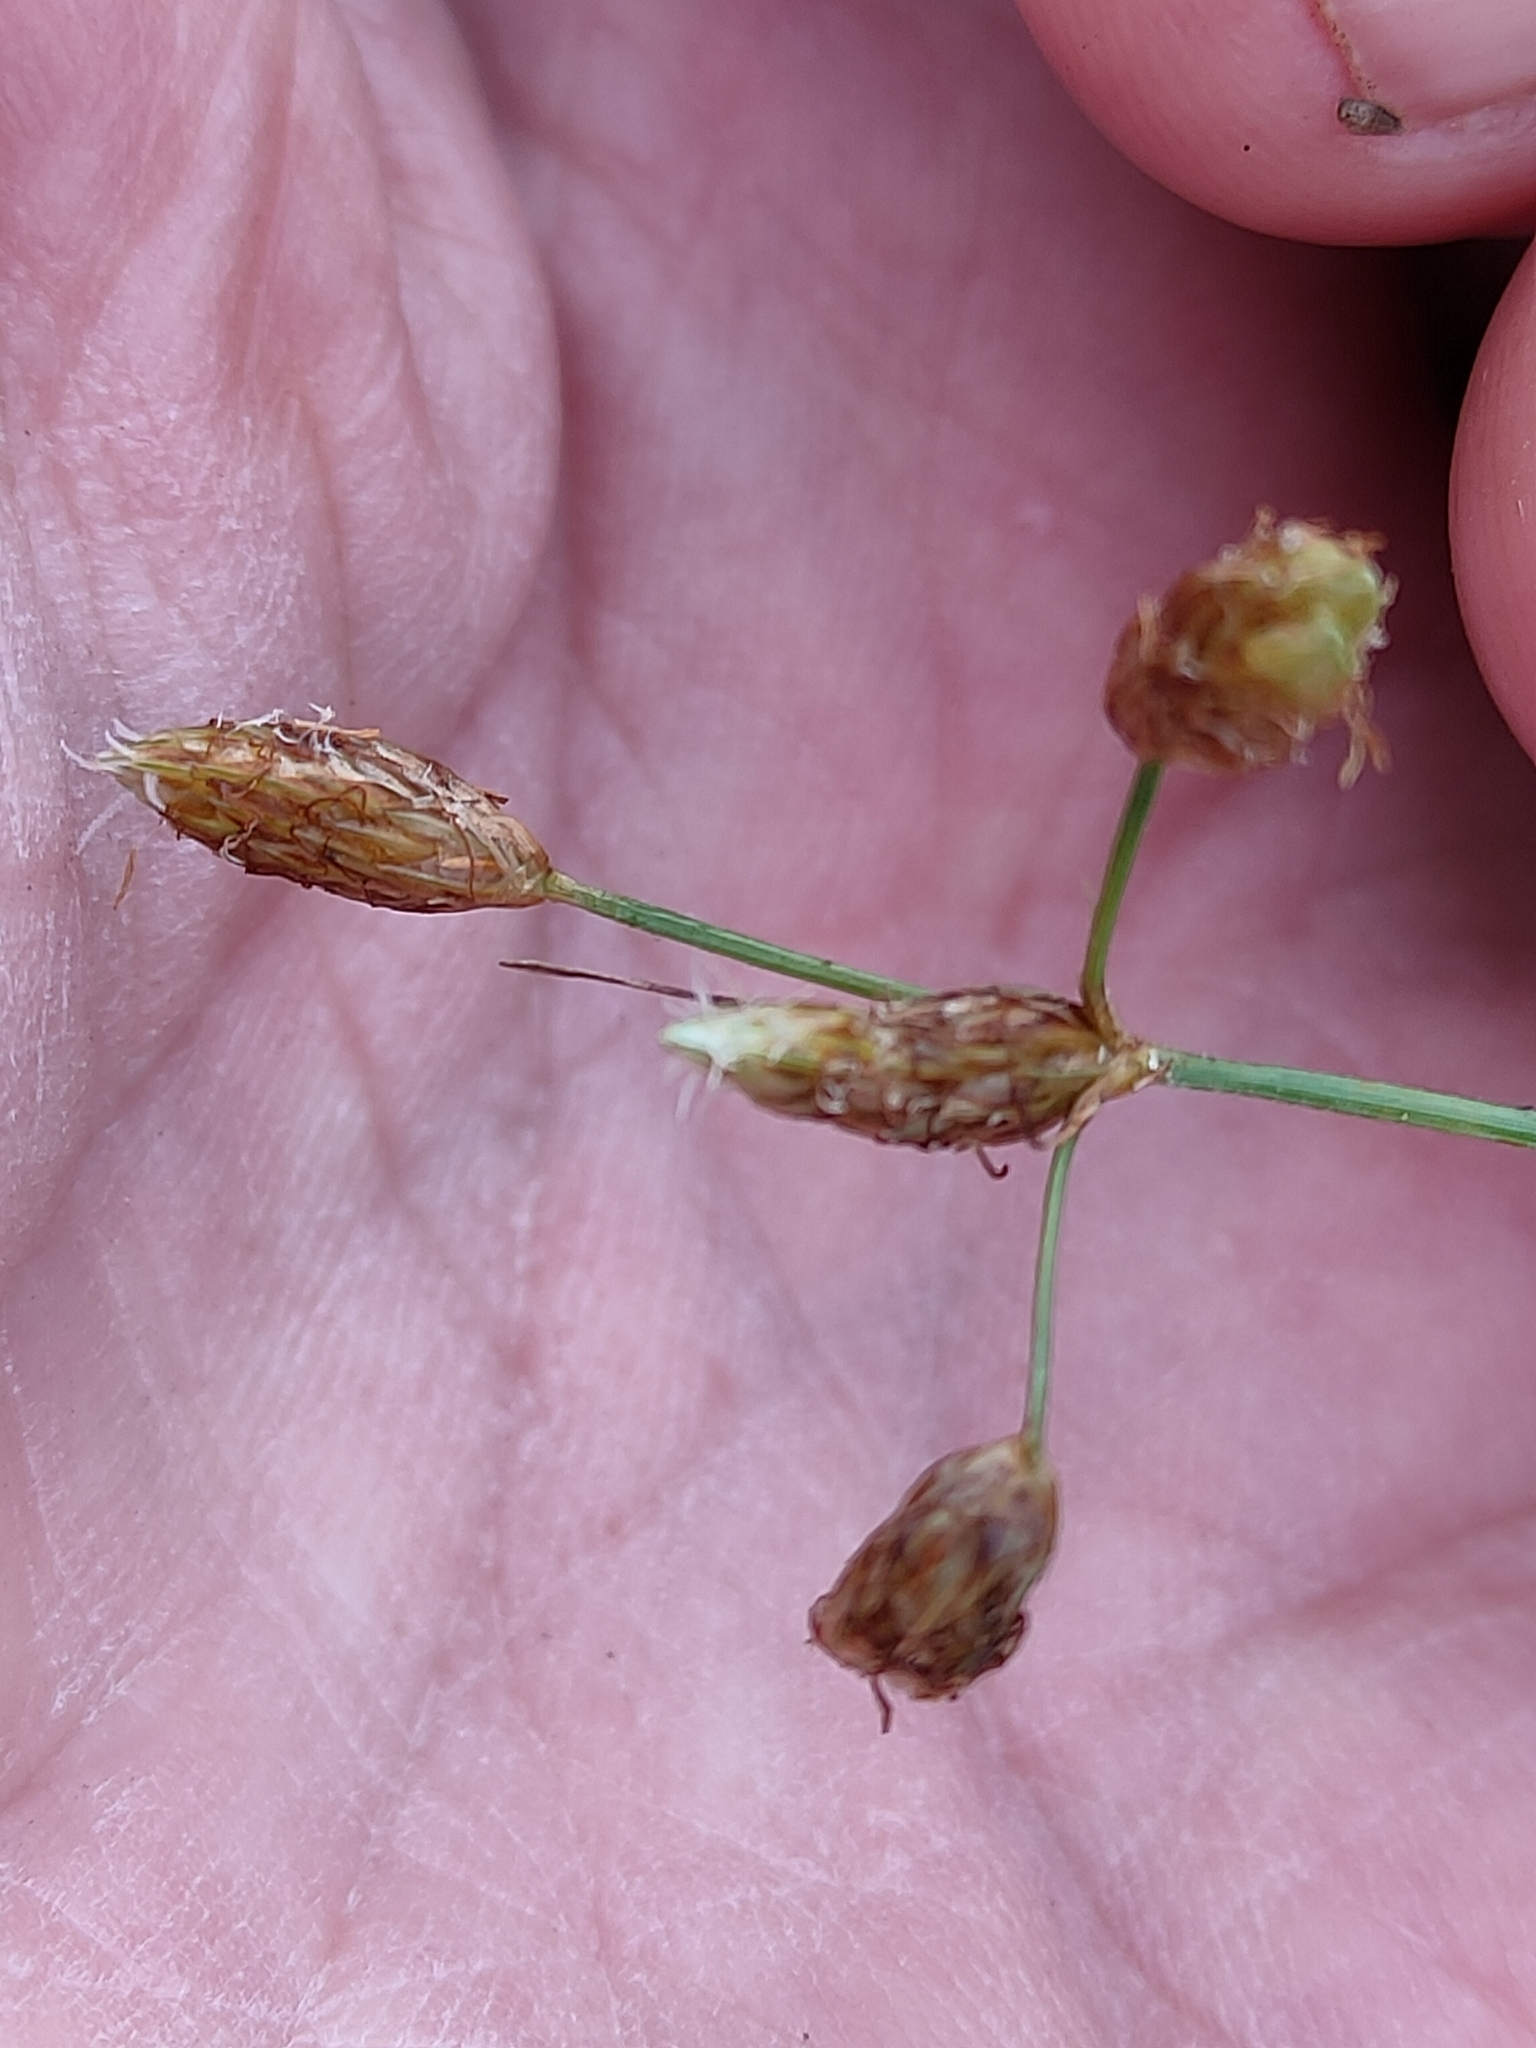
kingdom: Plantae
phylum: Tracheophyta
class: Liliopsida
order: Poales
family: Cyperaceae
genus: Fimbristylis
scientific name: Fimbristylis dichotoma
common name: Forked fimbry
